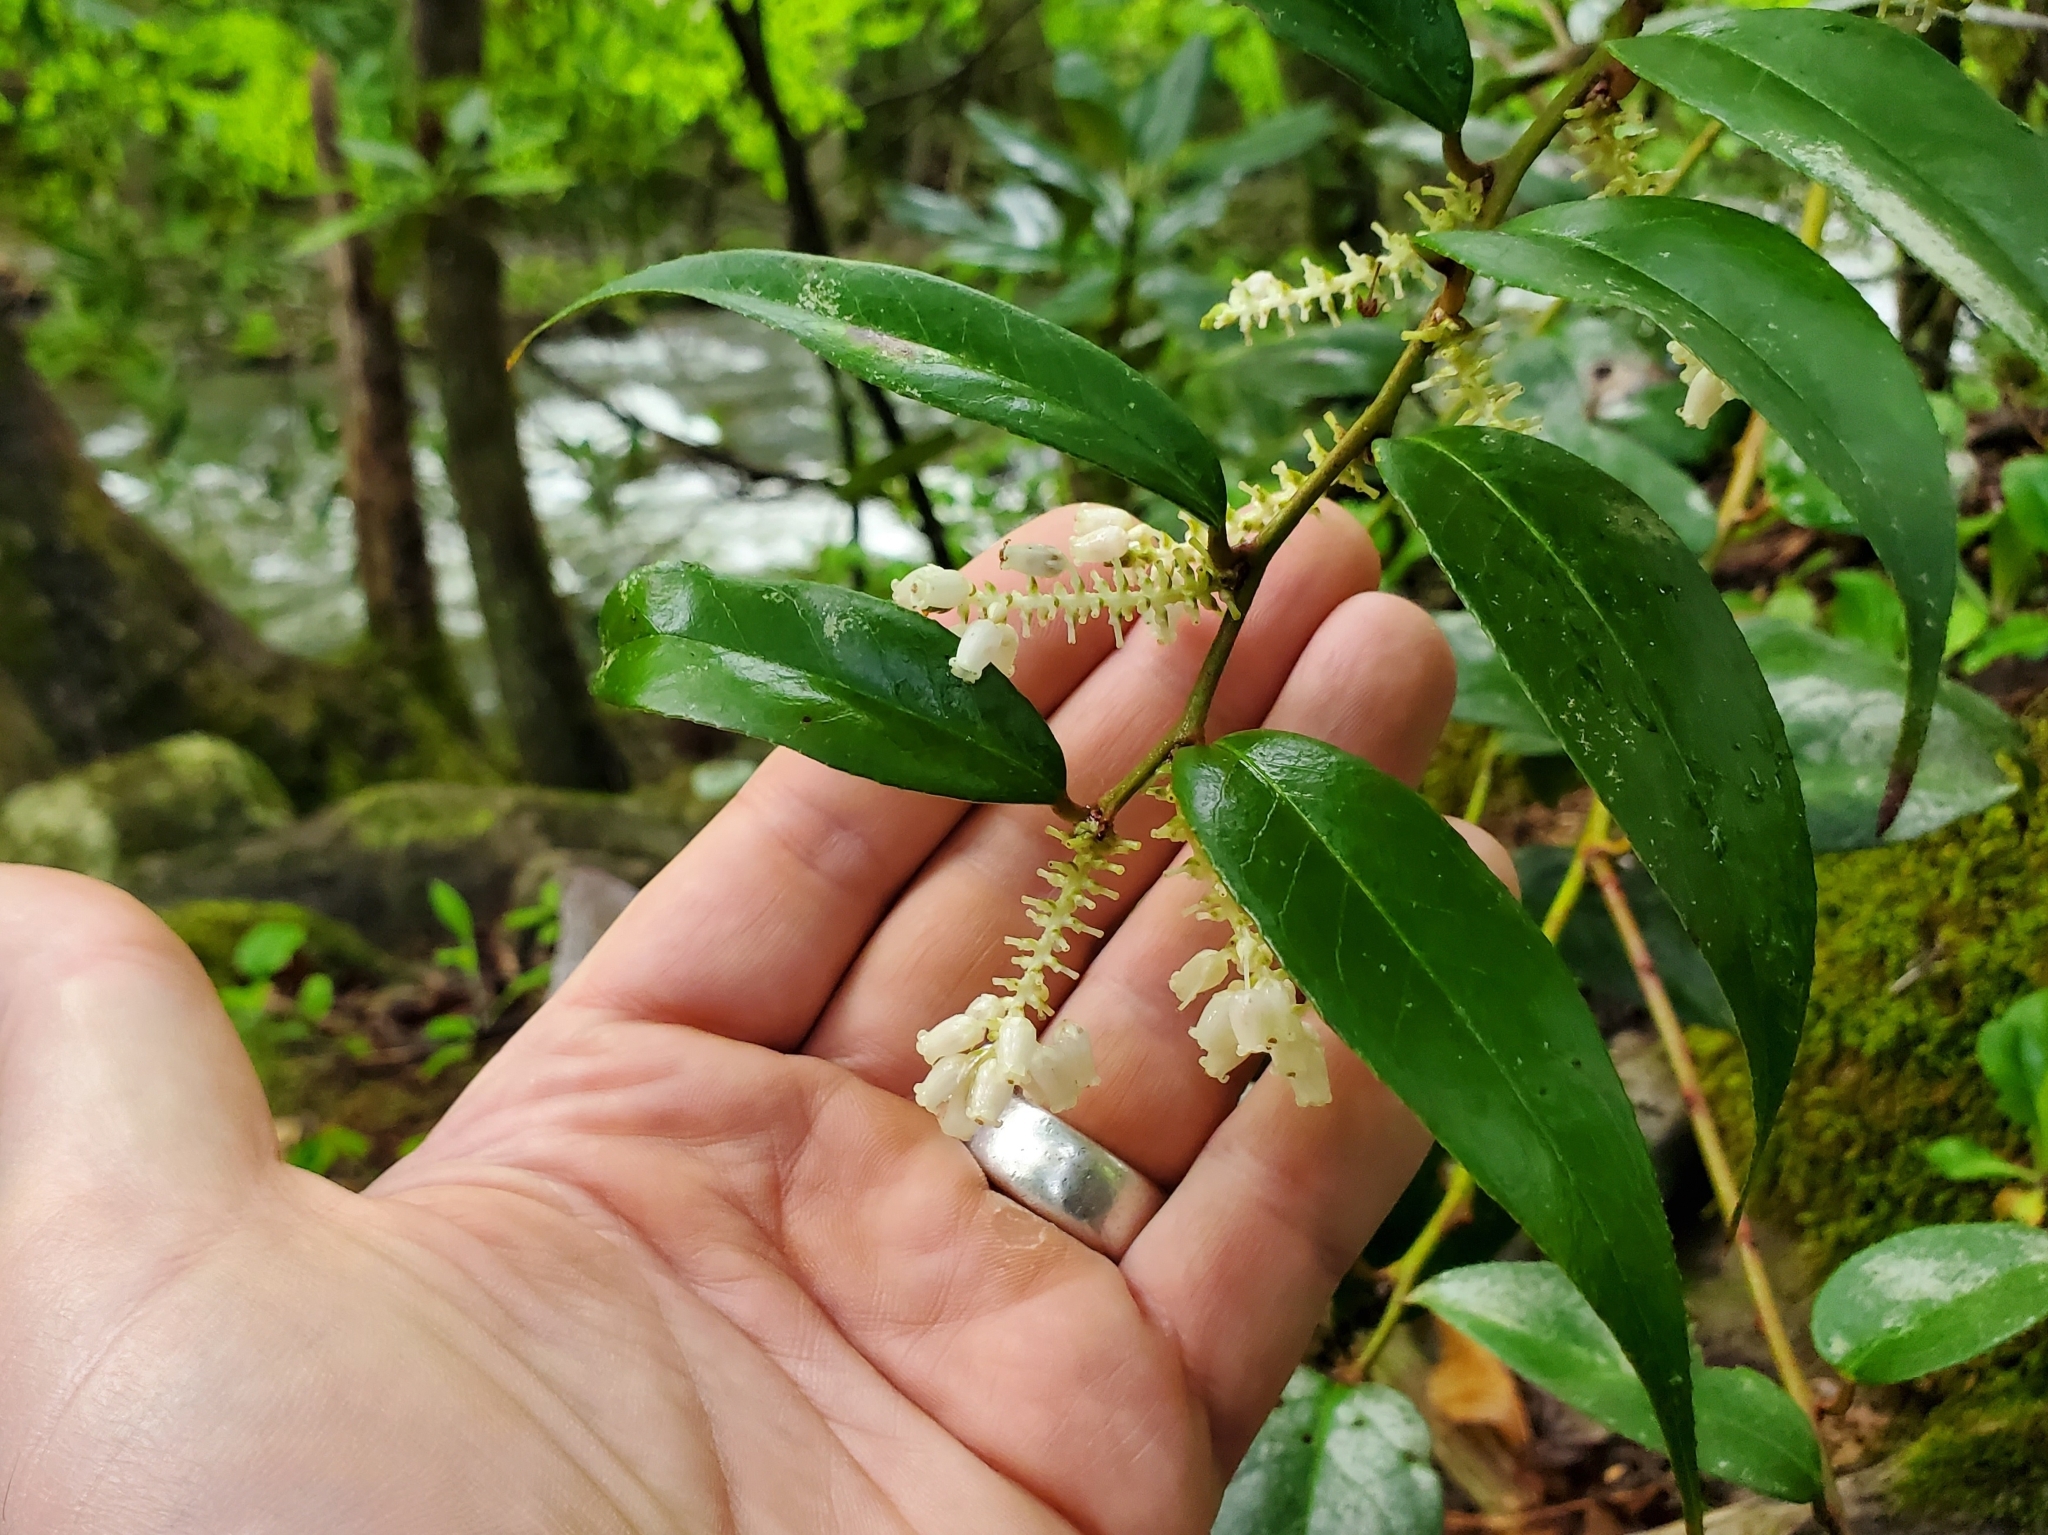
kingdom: Plantae
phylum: Tracheophyta
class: Magnoliopsida
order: Ericales
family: Ericaceae
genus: Leucothoe
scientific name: Leucothoe fontanesiana
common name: Fetterbush
